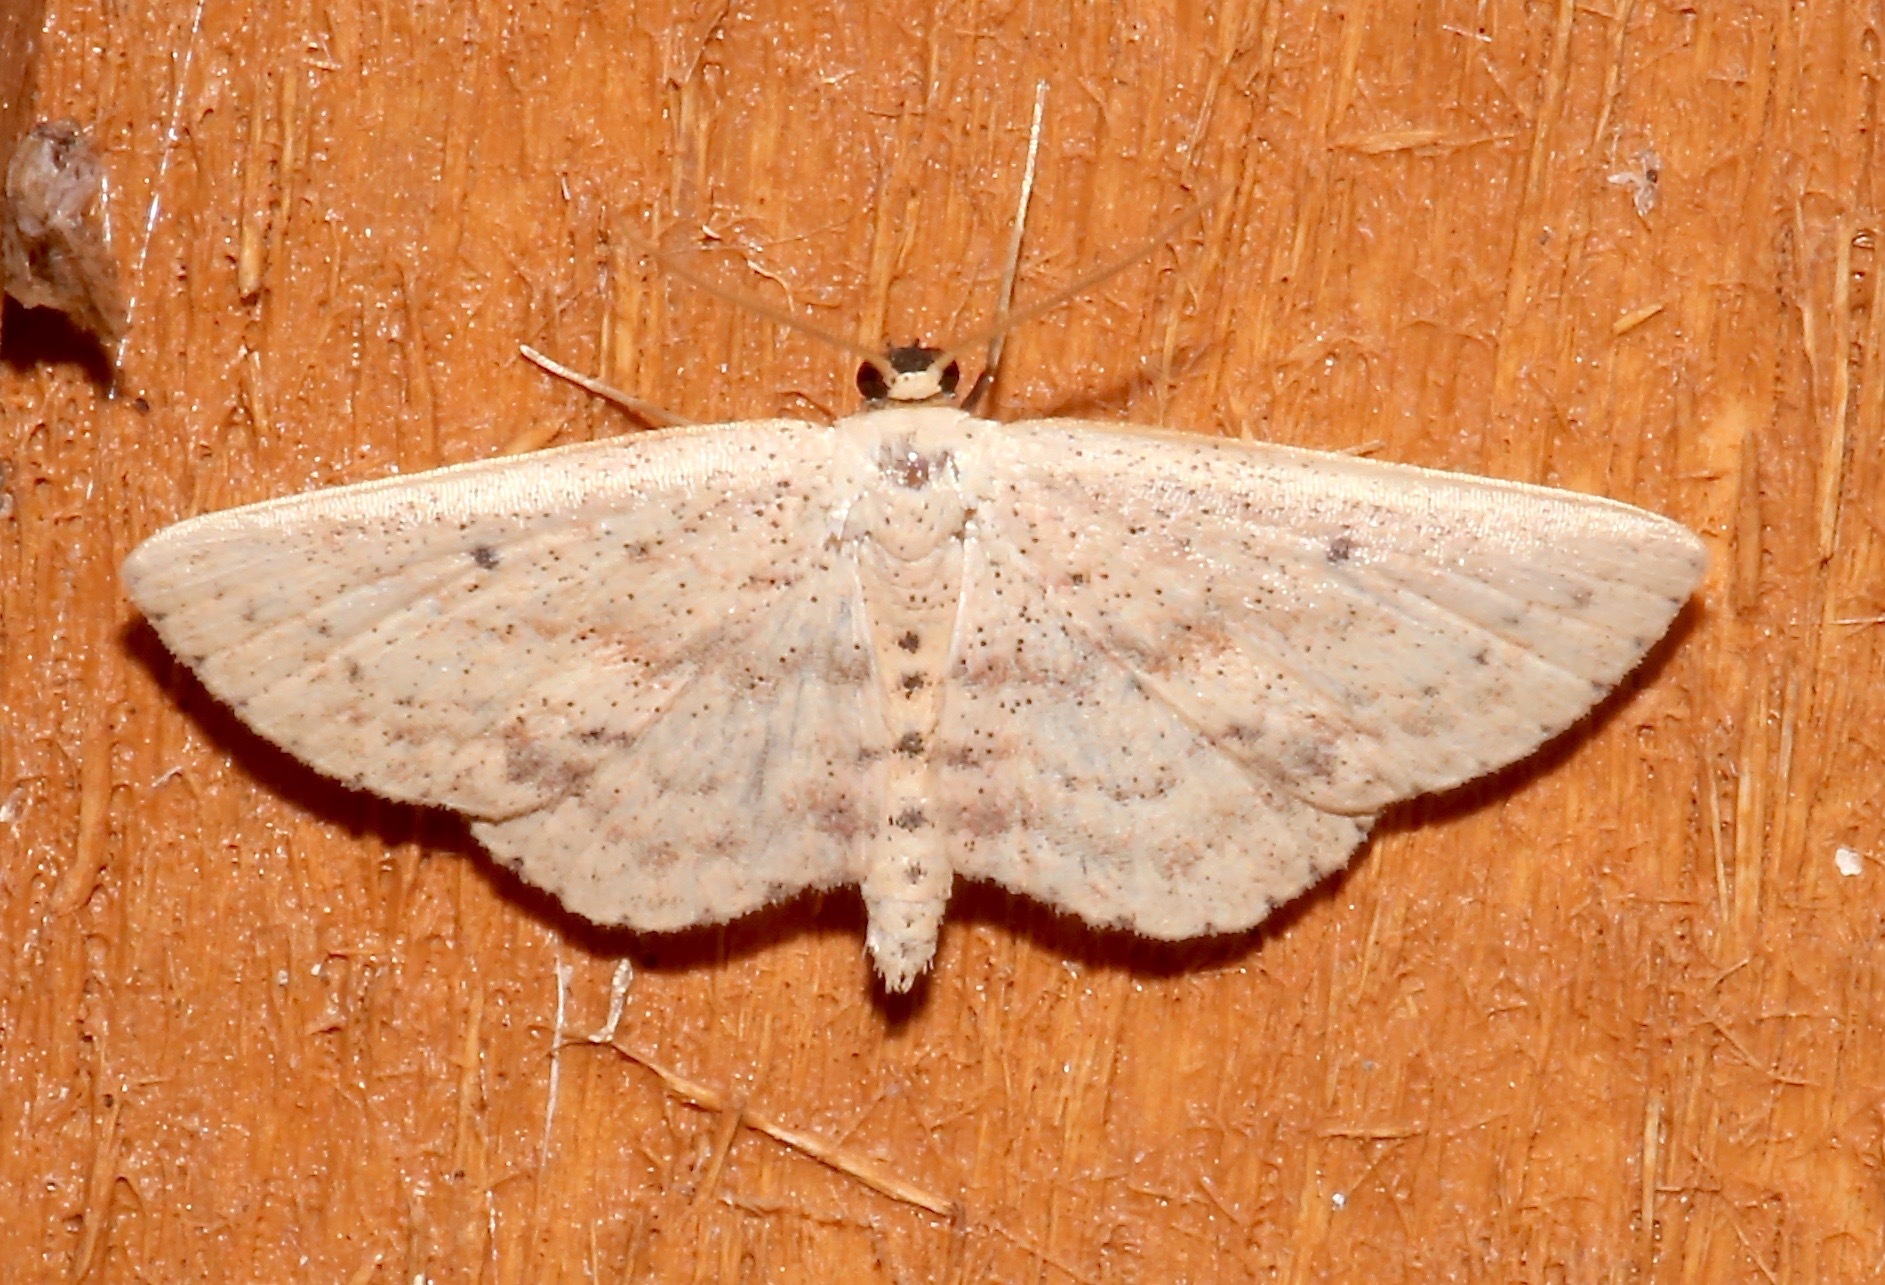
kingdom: Animalia
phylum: Arthropoda
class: Insecta
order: Lepidoptera
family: Geometridae
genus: Scopula
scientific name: Scopula aemulata
